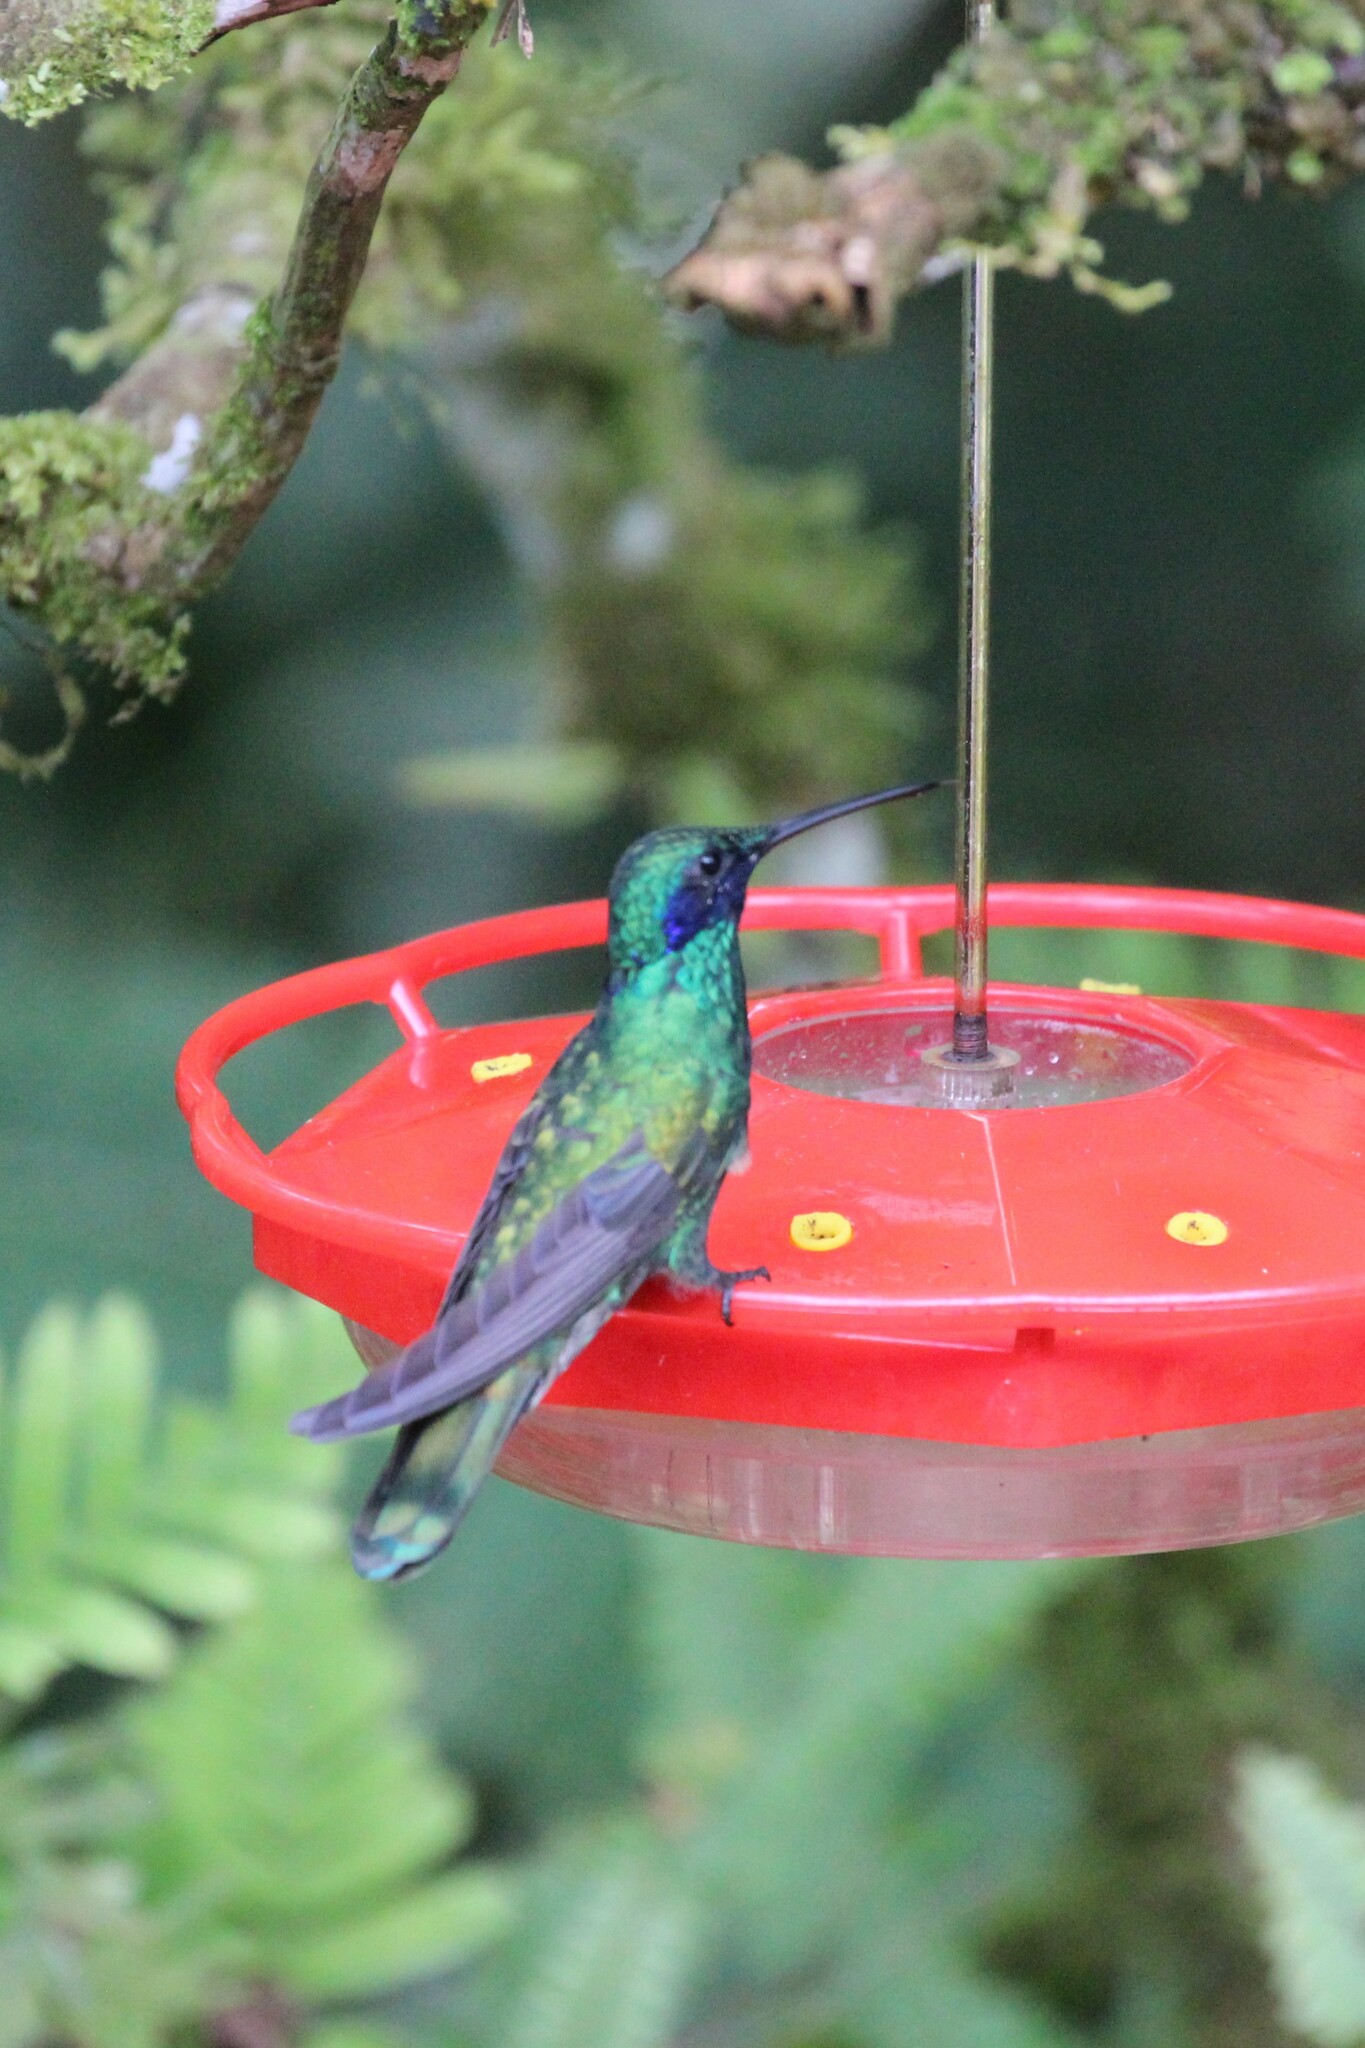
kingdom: Animalia
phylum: Chordata
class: Aves
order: Apodiformes
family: Trochilidae
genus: Colibri
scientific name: Colibri coruscans
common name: Sparkling violetear
